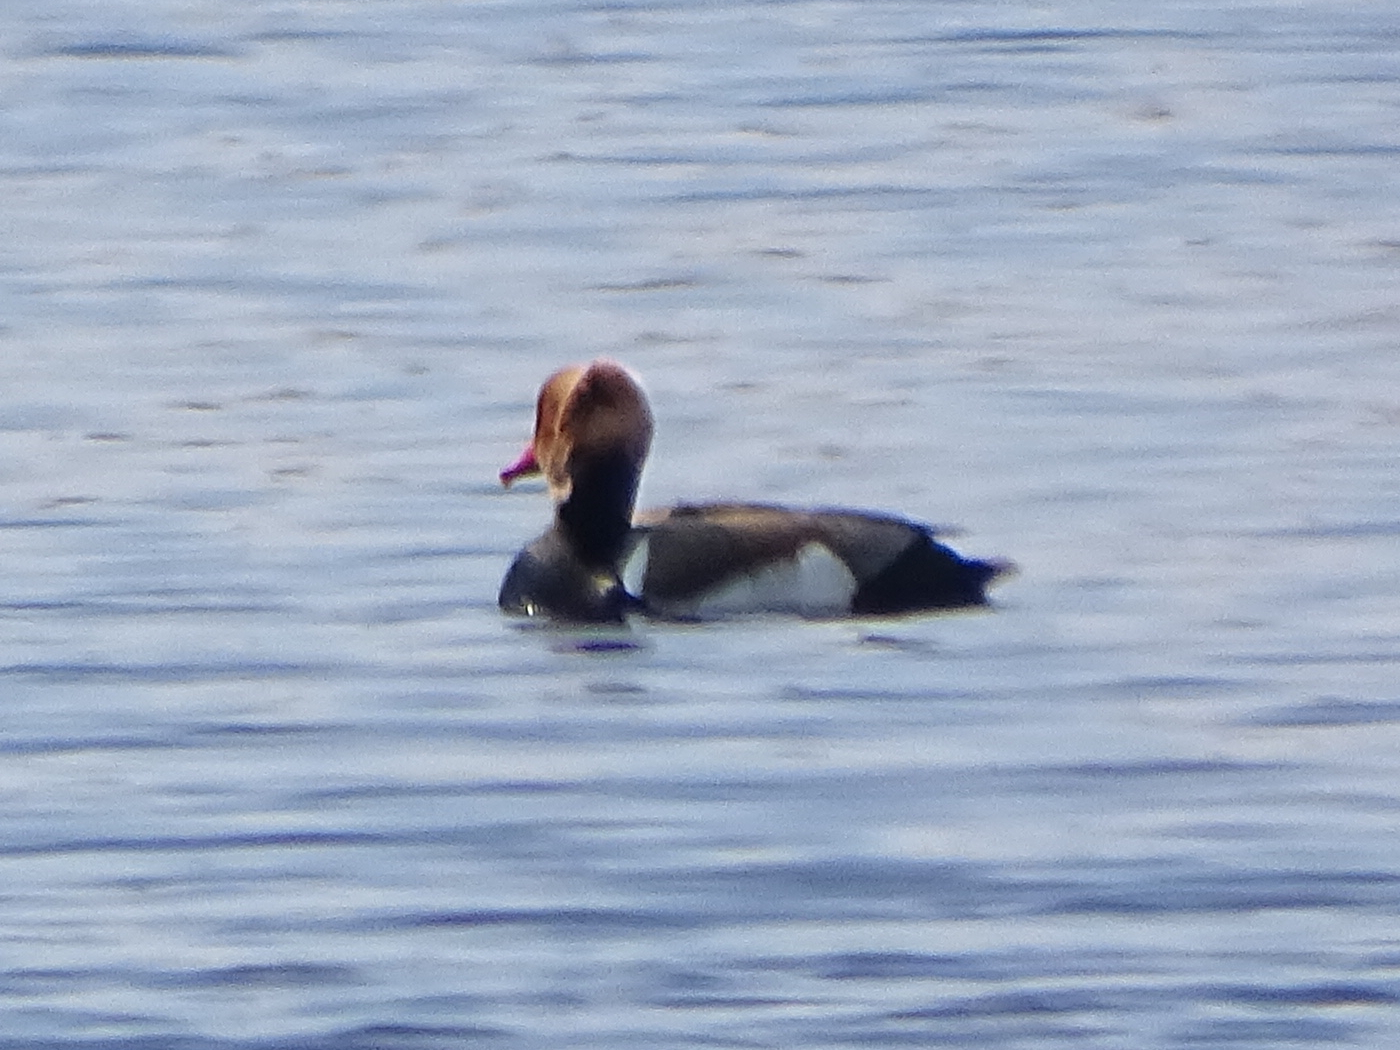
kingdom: Animalia
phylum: Chordata
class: Aves
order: Anseriformes
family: Anatidae
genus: Netta
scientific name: Netta rufina
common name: Red-crested pochard
